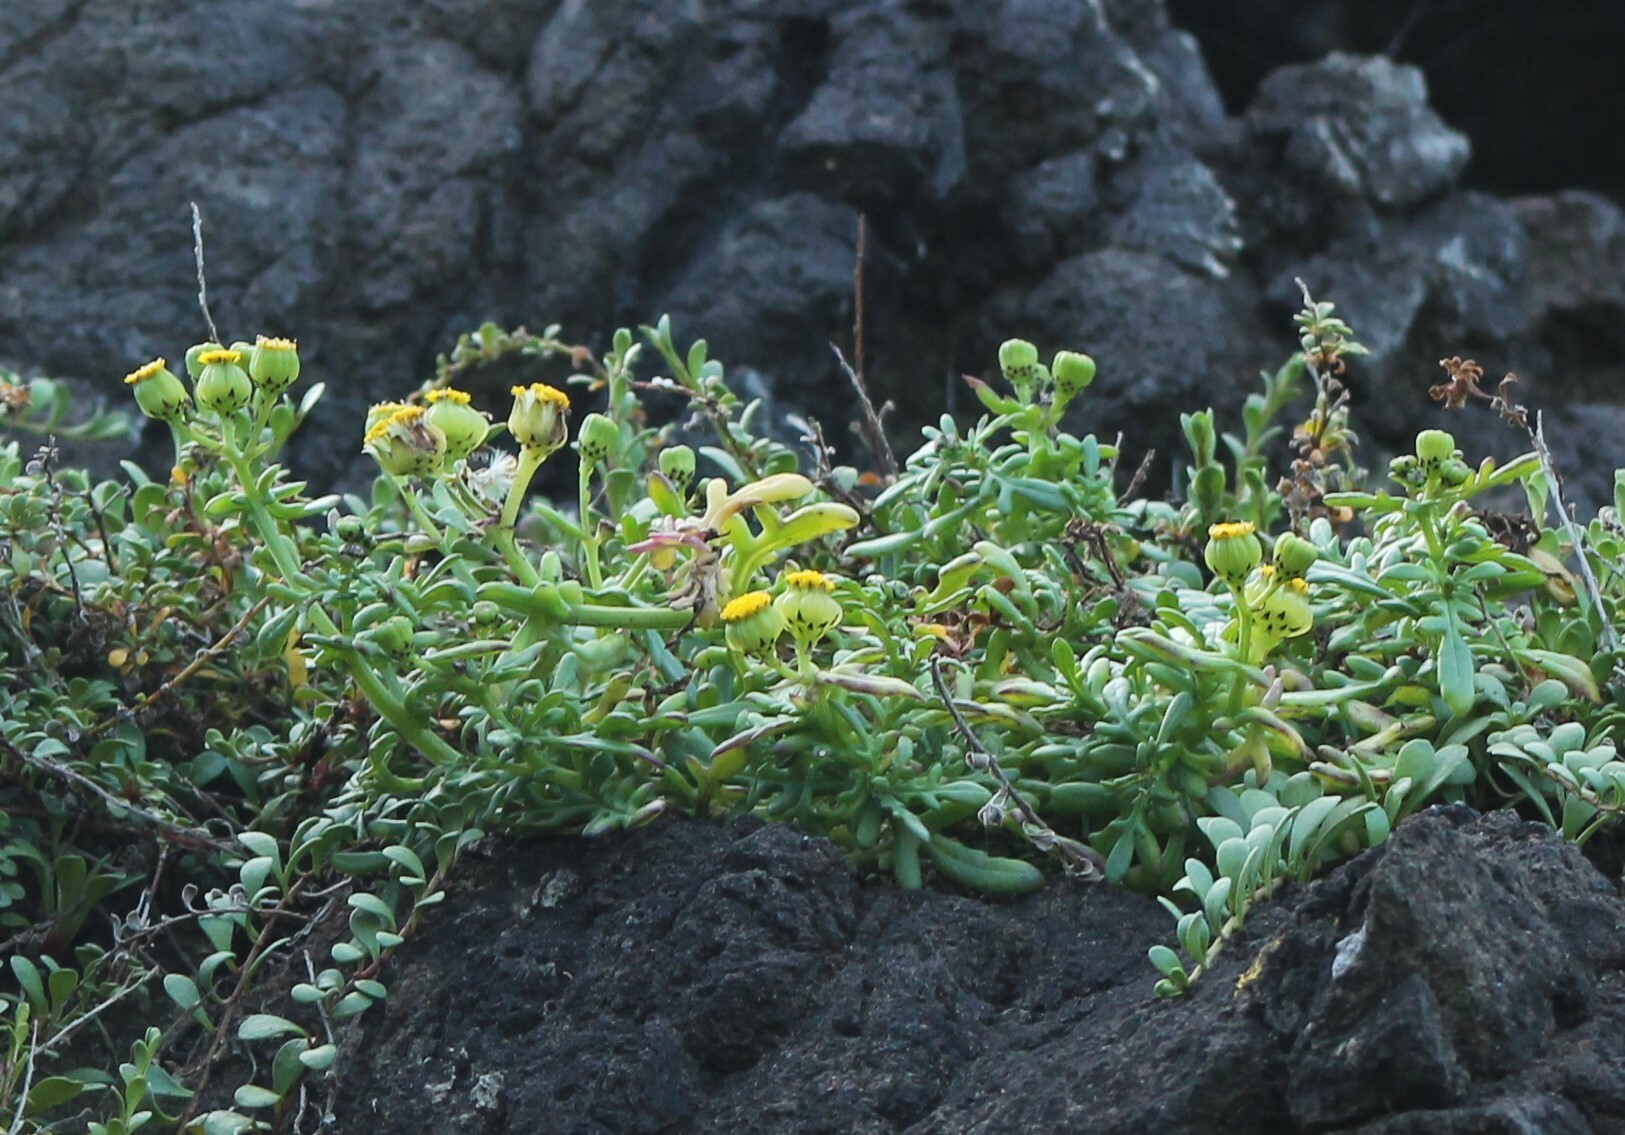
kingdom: Plantae
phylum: Tracheophyta
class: Magnoliopsida
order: Asterales
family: Asteraceae
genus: Senecio
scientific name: Senecio lautus
